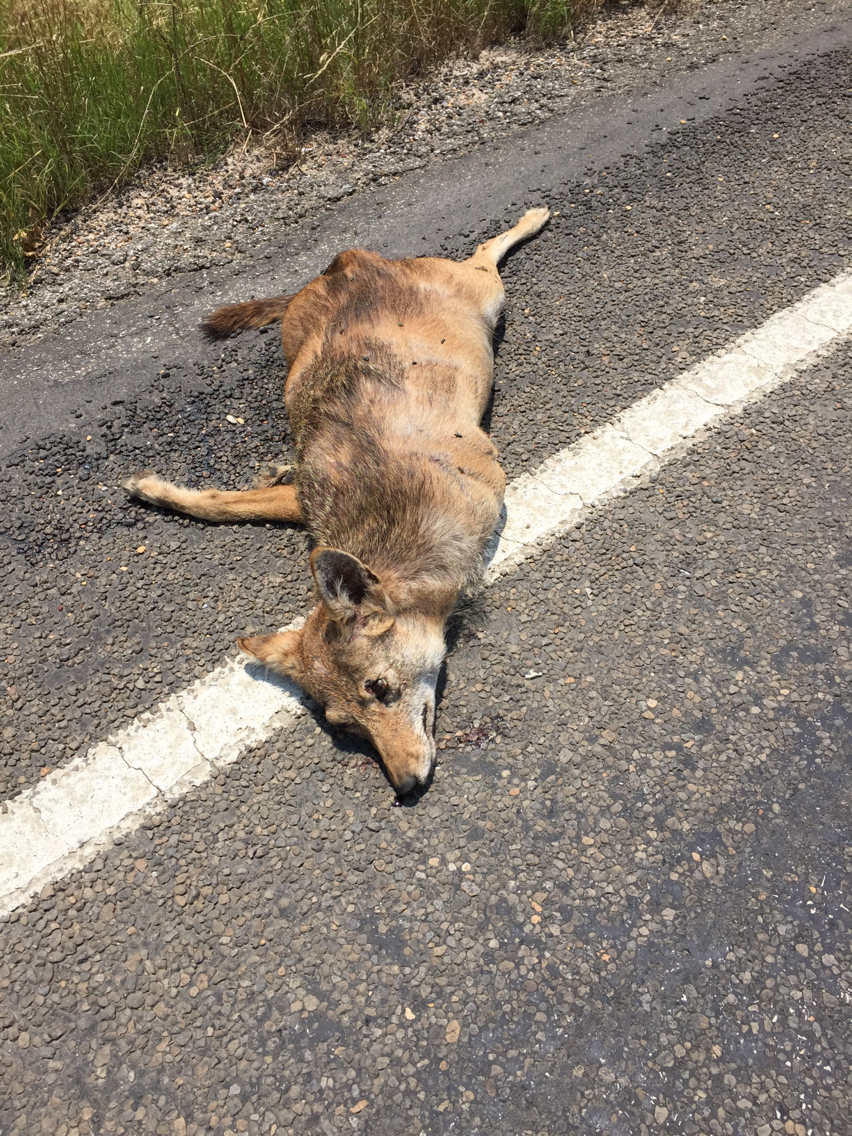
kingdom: Animalia
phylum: Chordata
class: Mammalia
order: Carnivora
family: Canidae
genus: Canis
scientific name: Canis latrans
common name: Coyote
